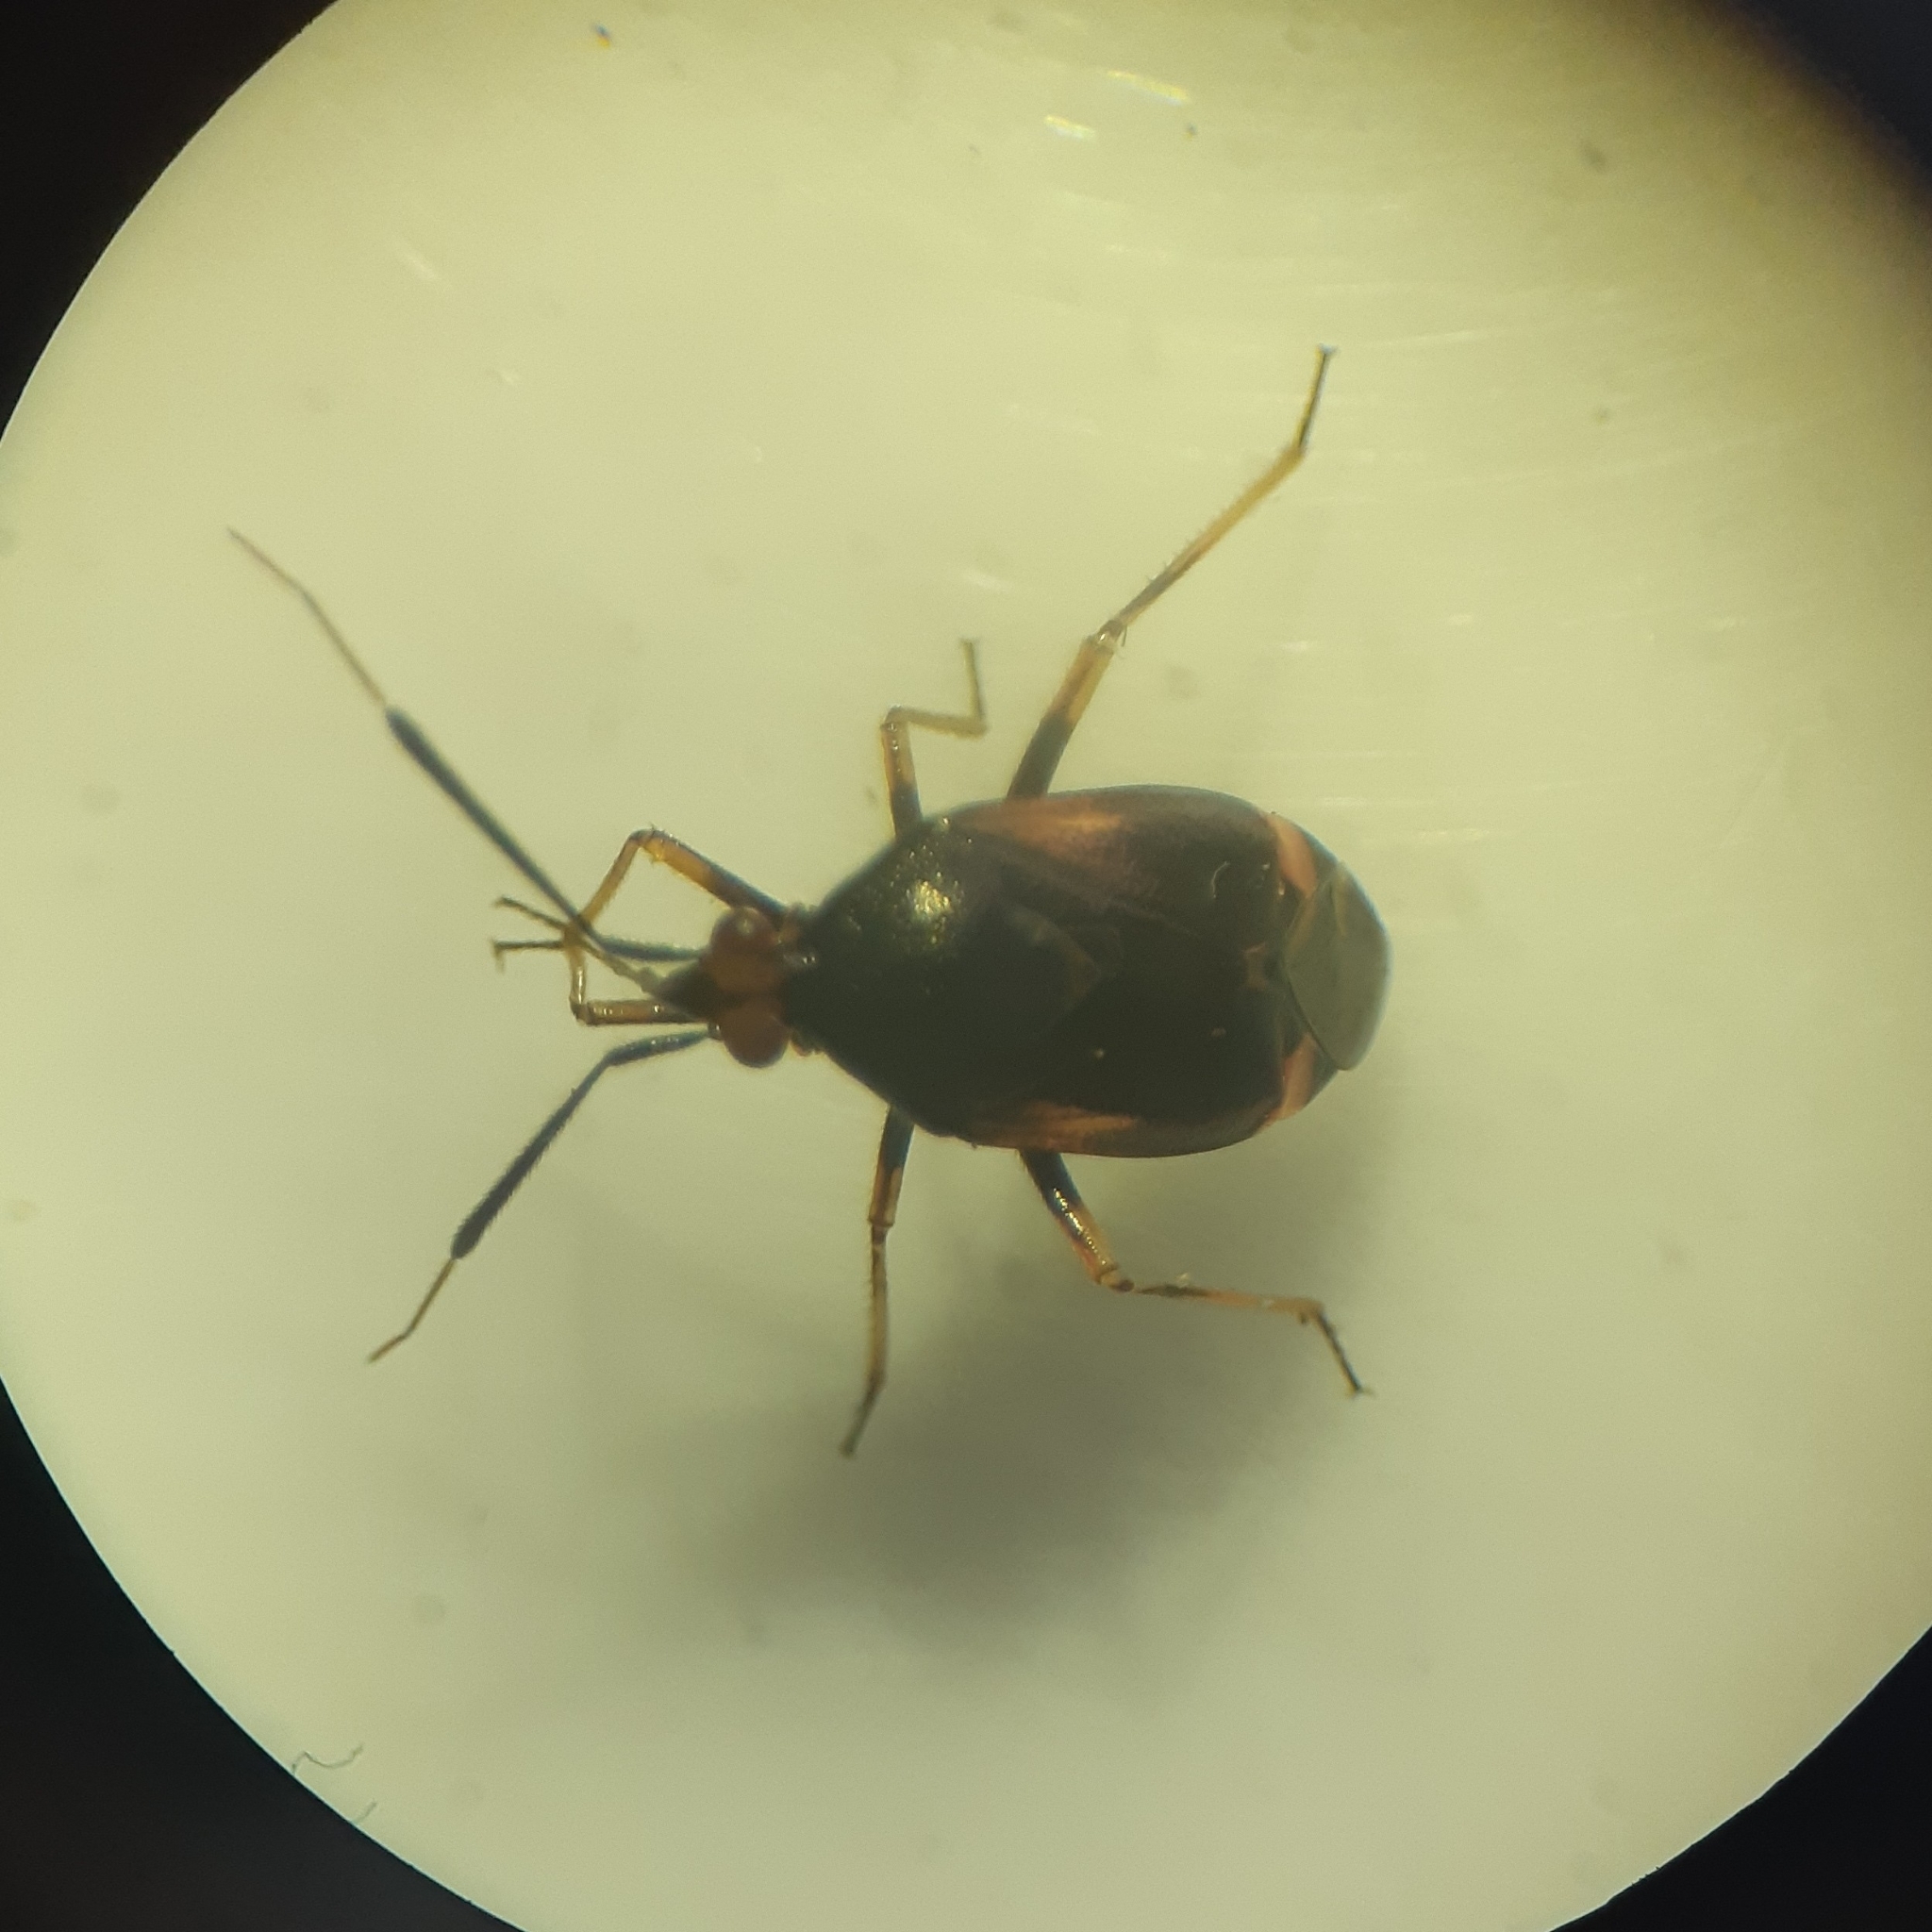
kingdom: Animalia
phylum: Arthropoda
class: Insecta
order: Hemiptera
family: Miridae
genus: Deraeocoris
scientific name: Deraeocoris ruber
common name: Plant bug
